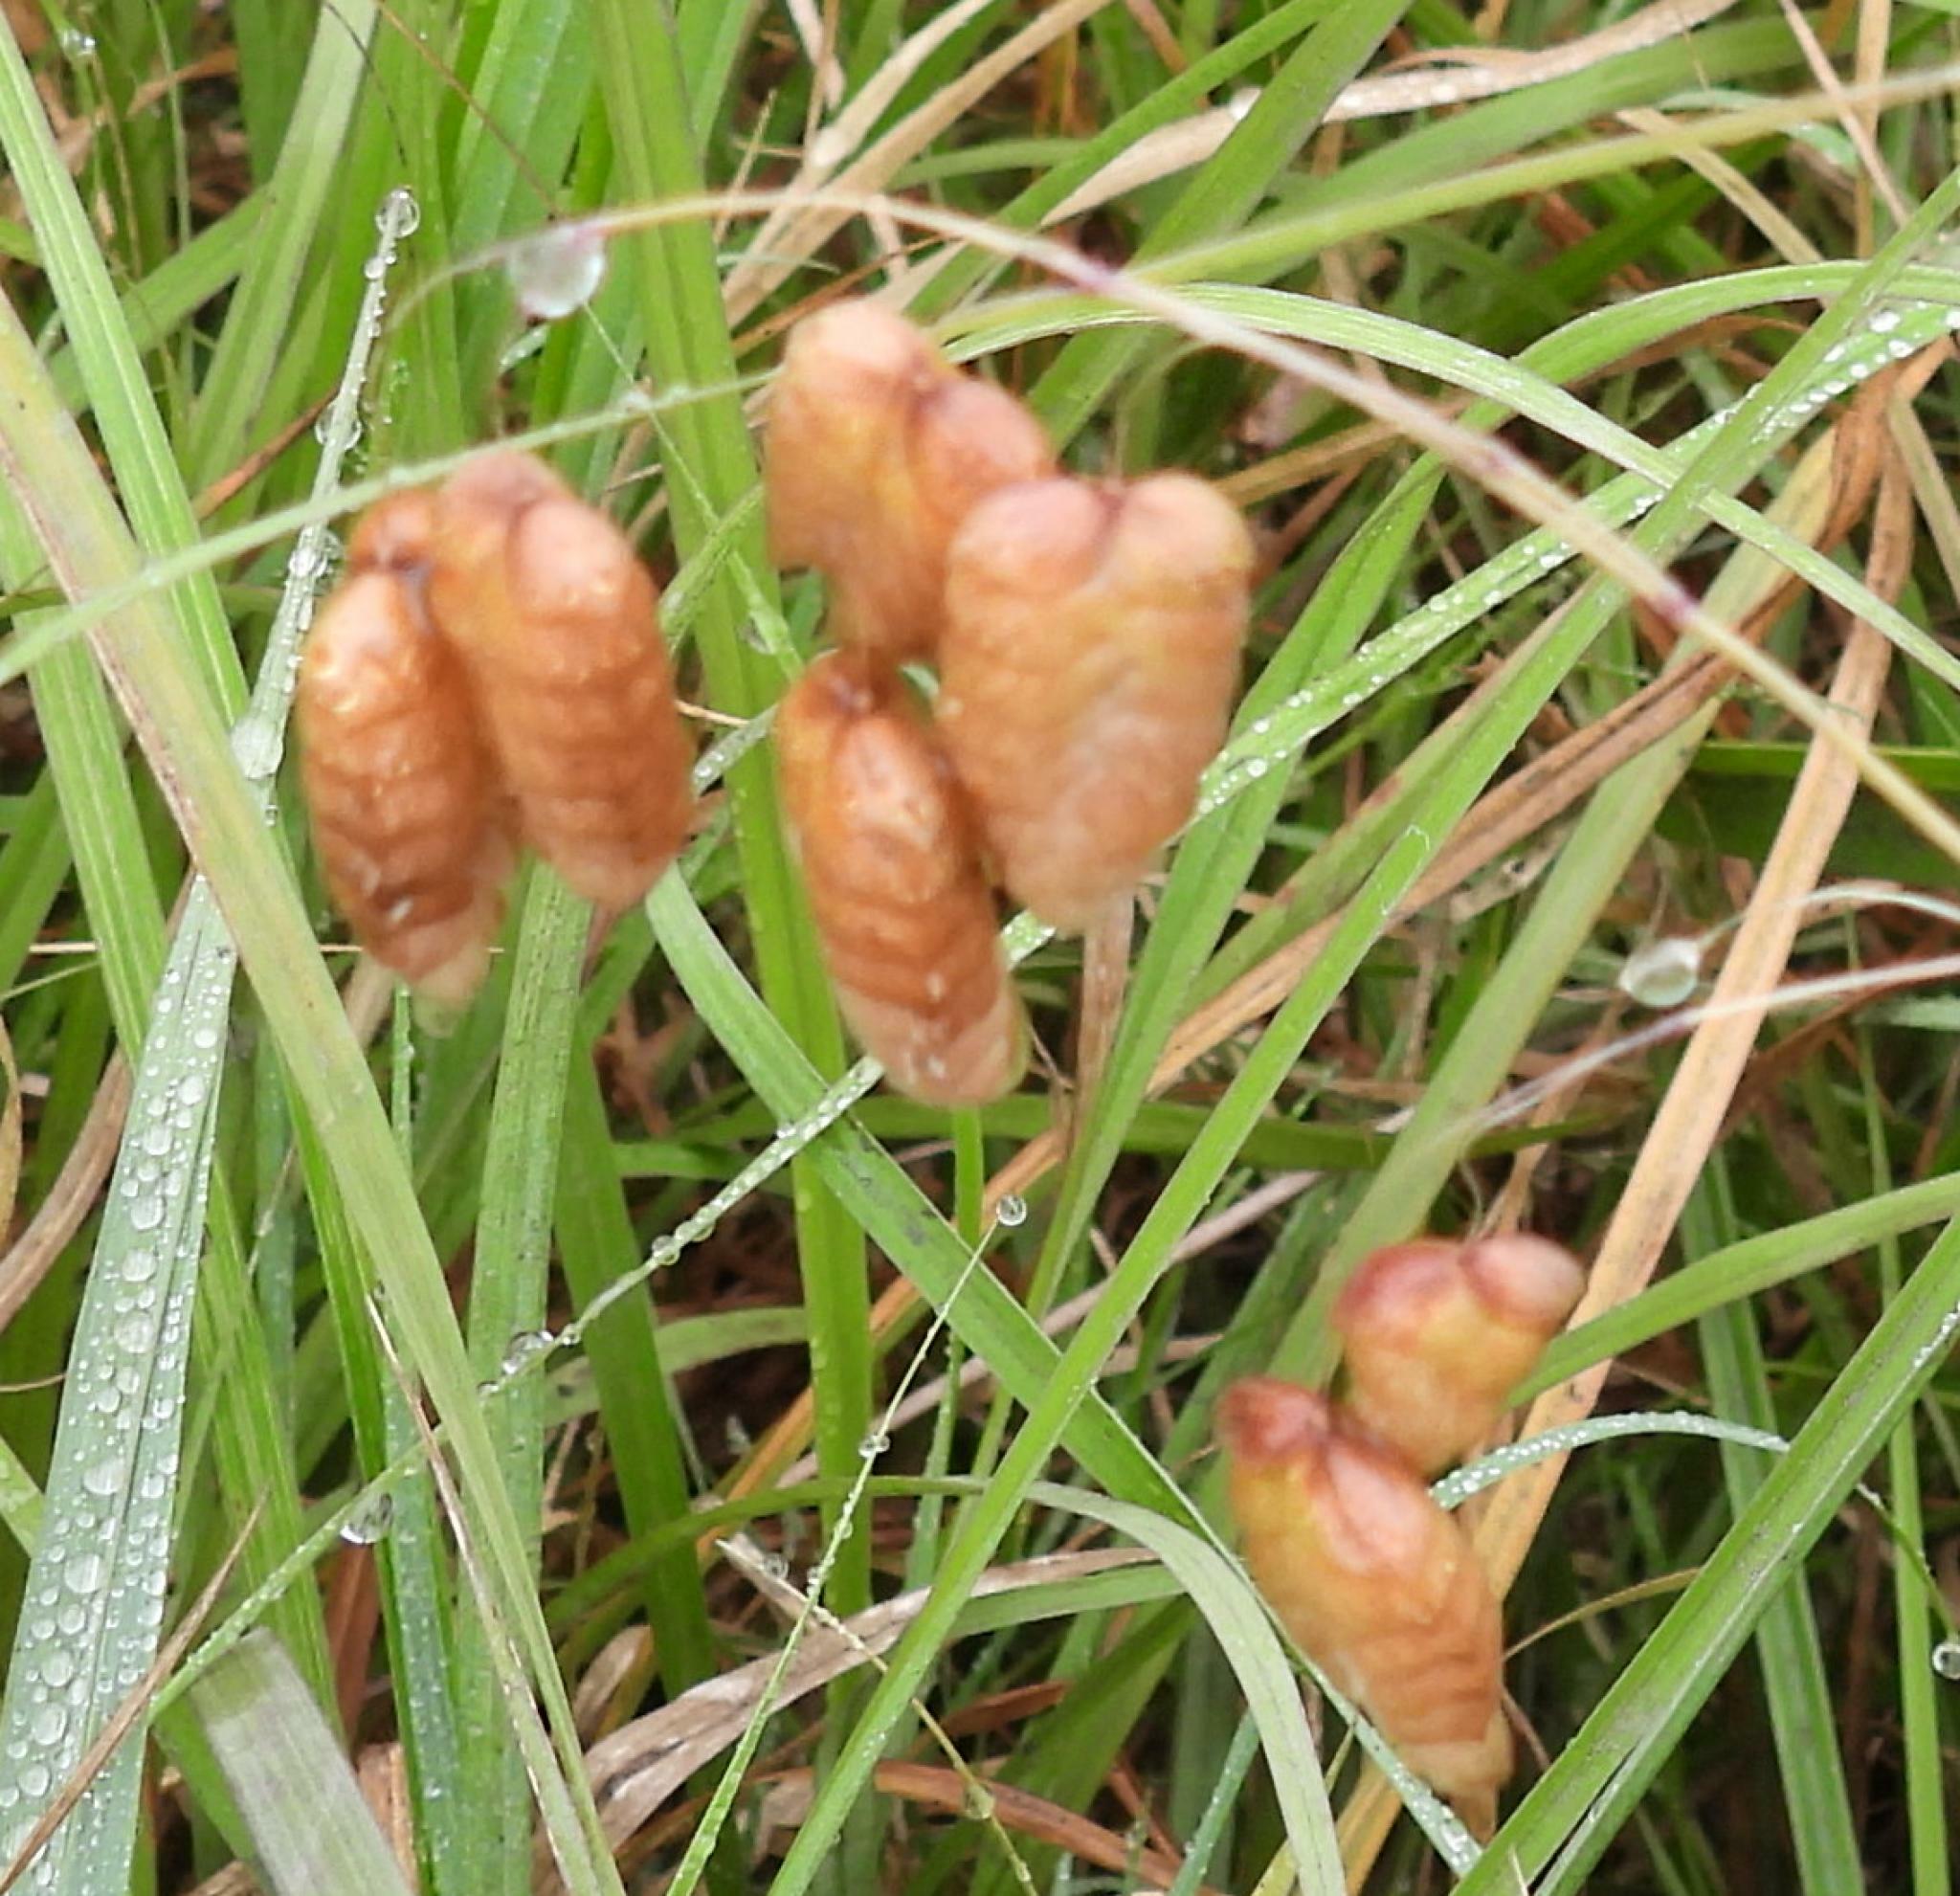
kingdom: Plantae
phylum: Tracheophyta
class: Liliopsida
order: Poales
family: Poaceae
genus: Briza
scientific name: Briza maxima
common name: Big quakinggrass
